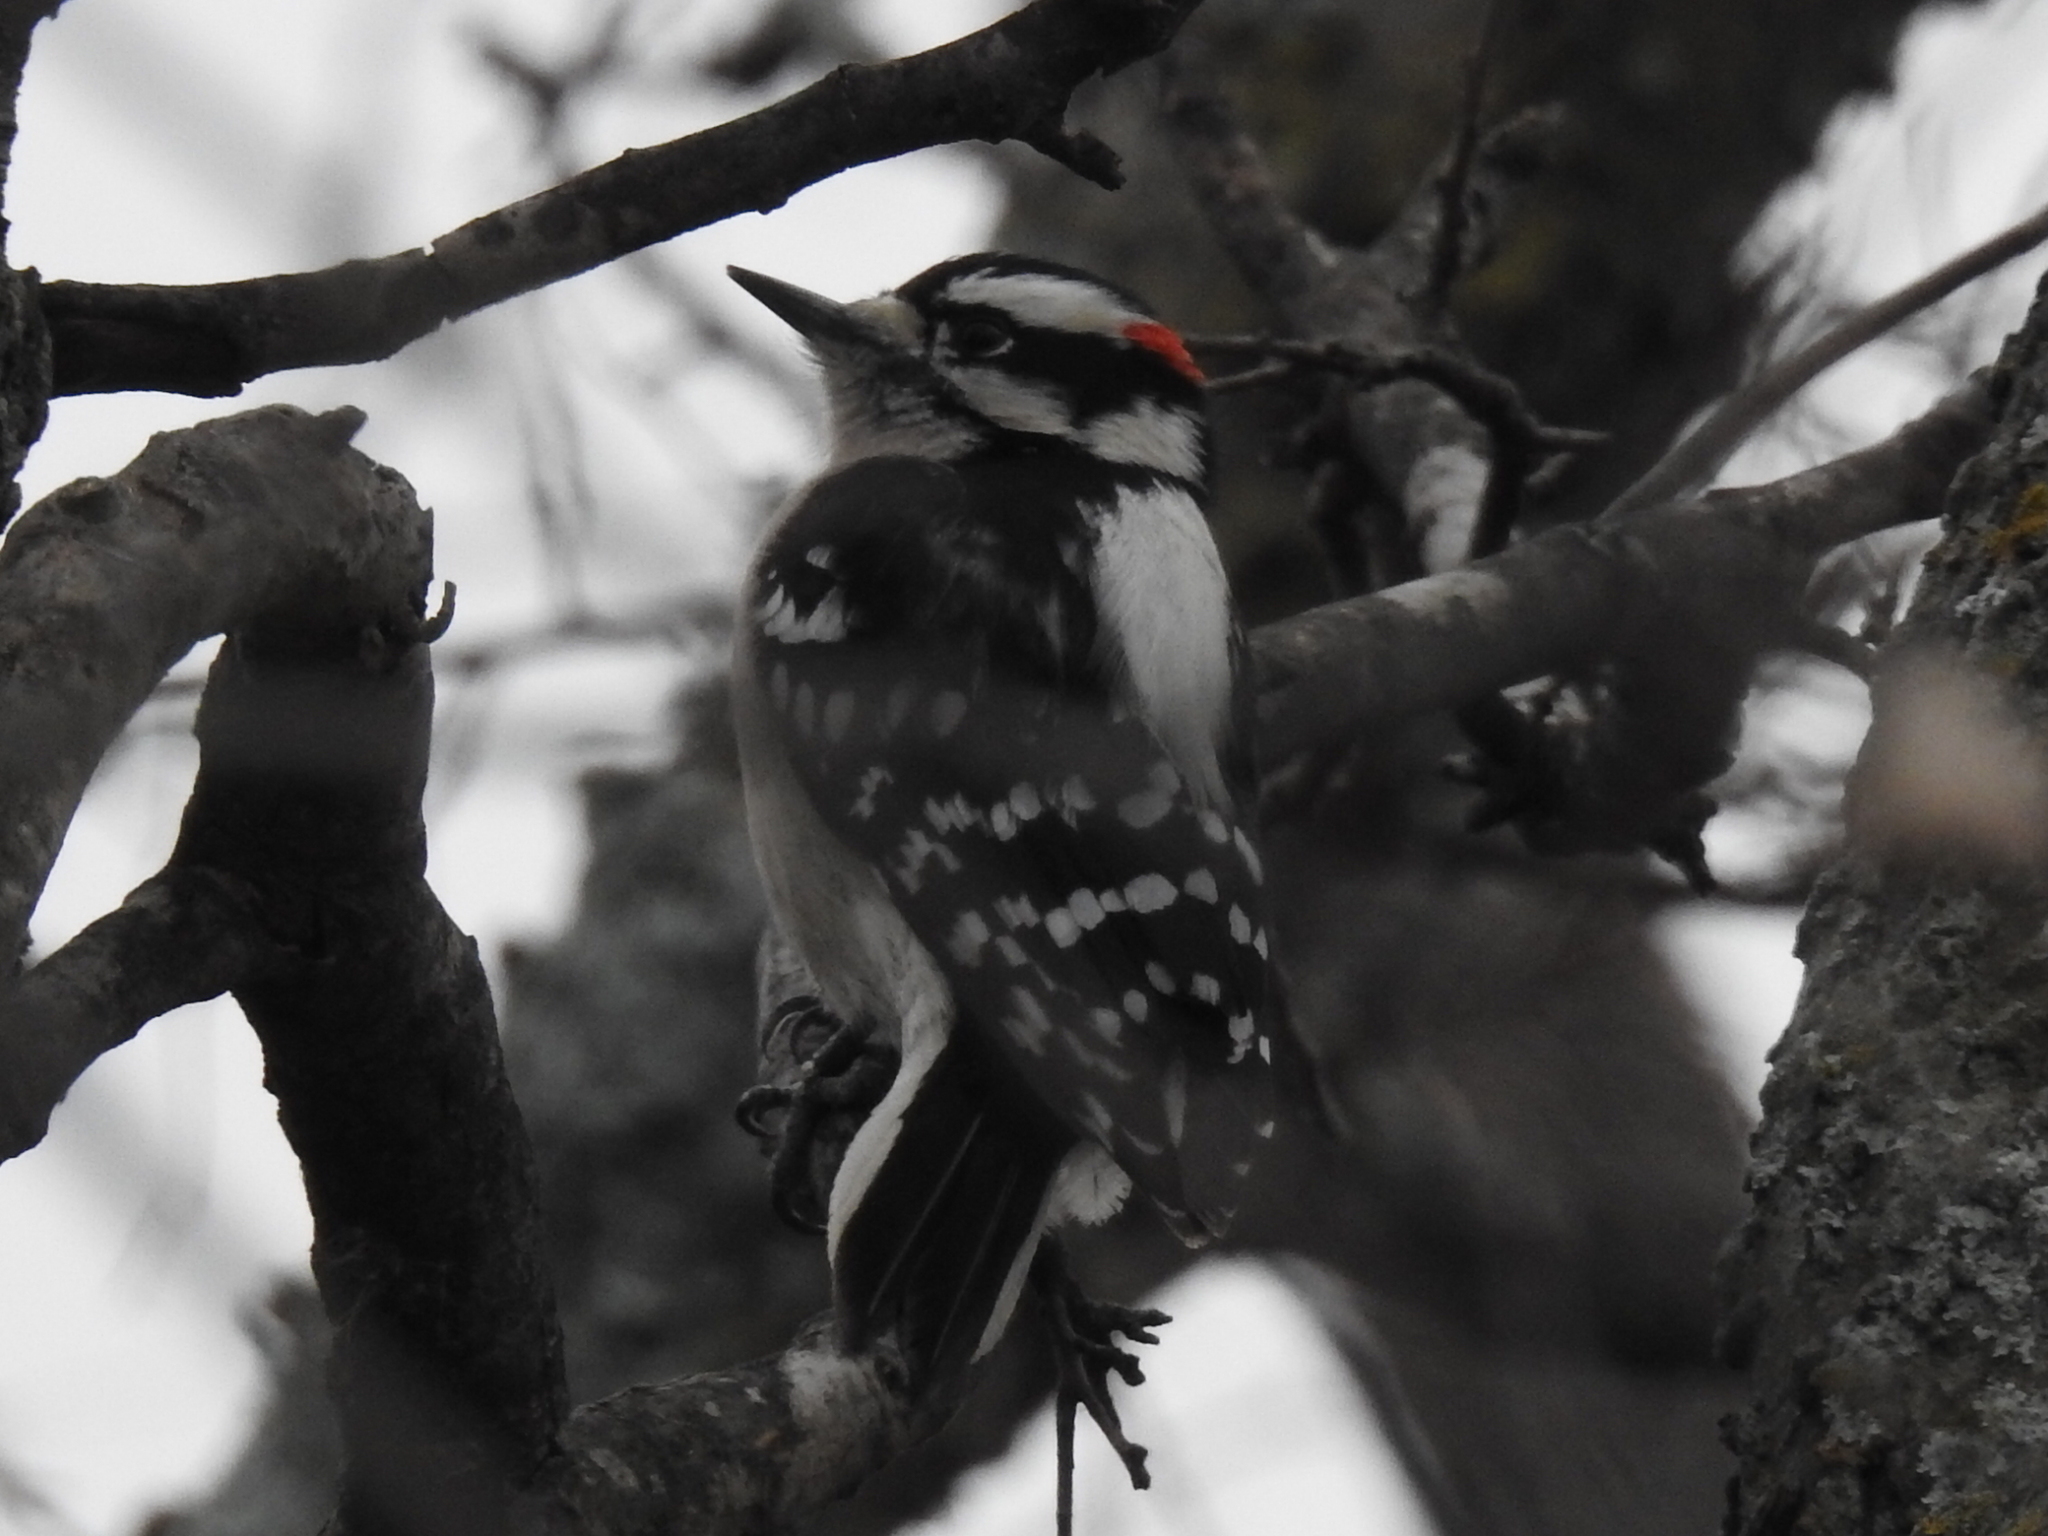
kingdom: Animalia
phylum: Chordata
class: Aves
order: Piciformes
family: Picidae
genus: Dryobates
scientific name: Dryobates pubescens
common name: Downy woodpecker
